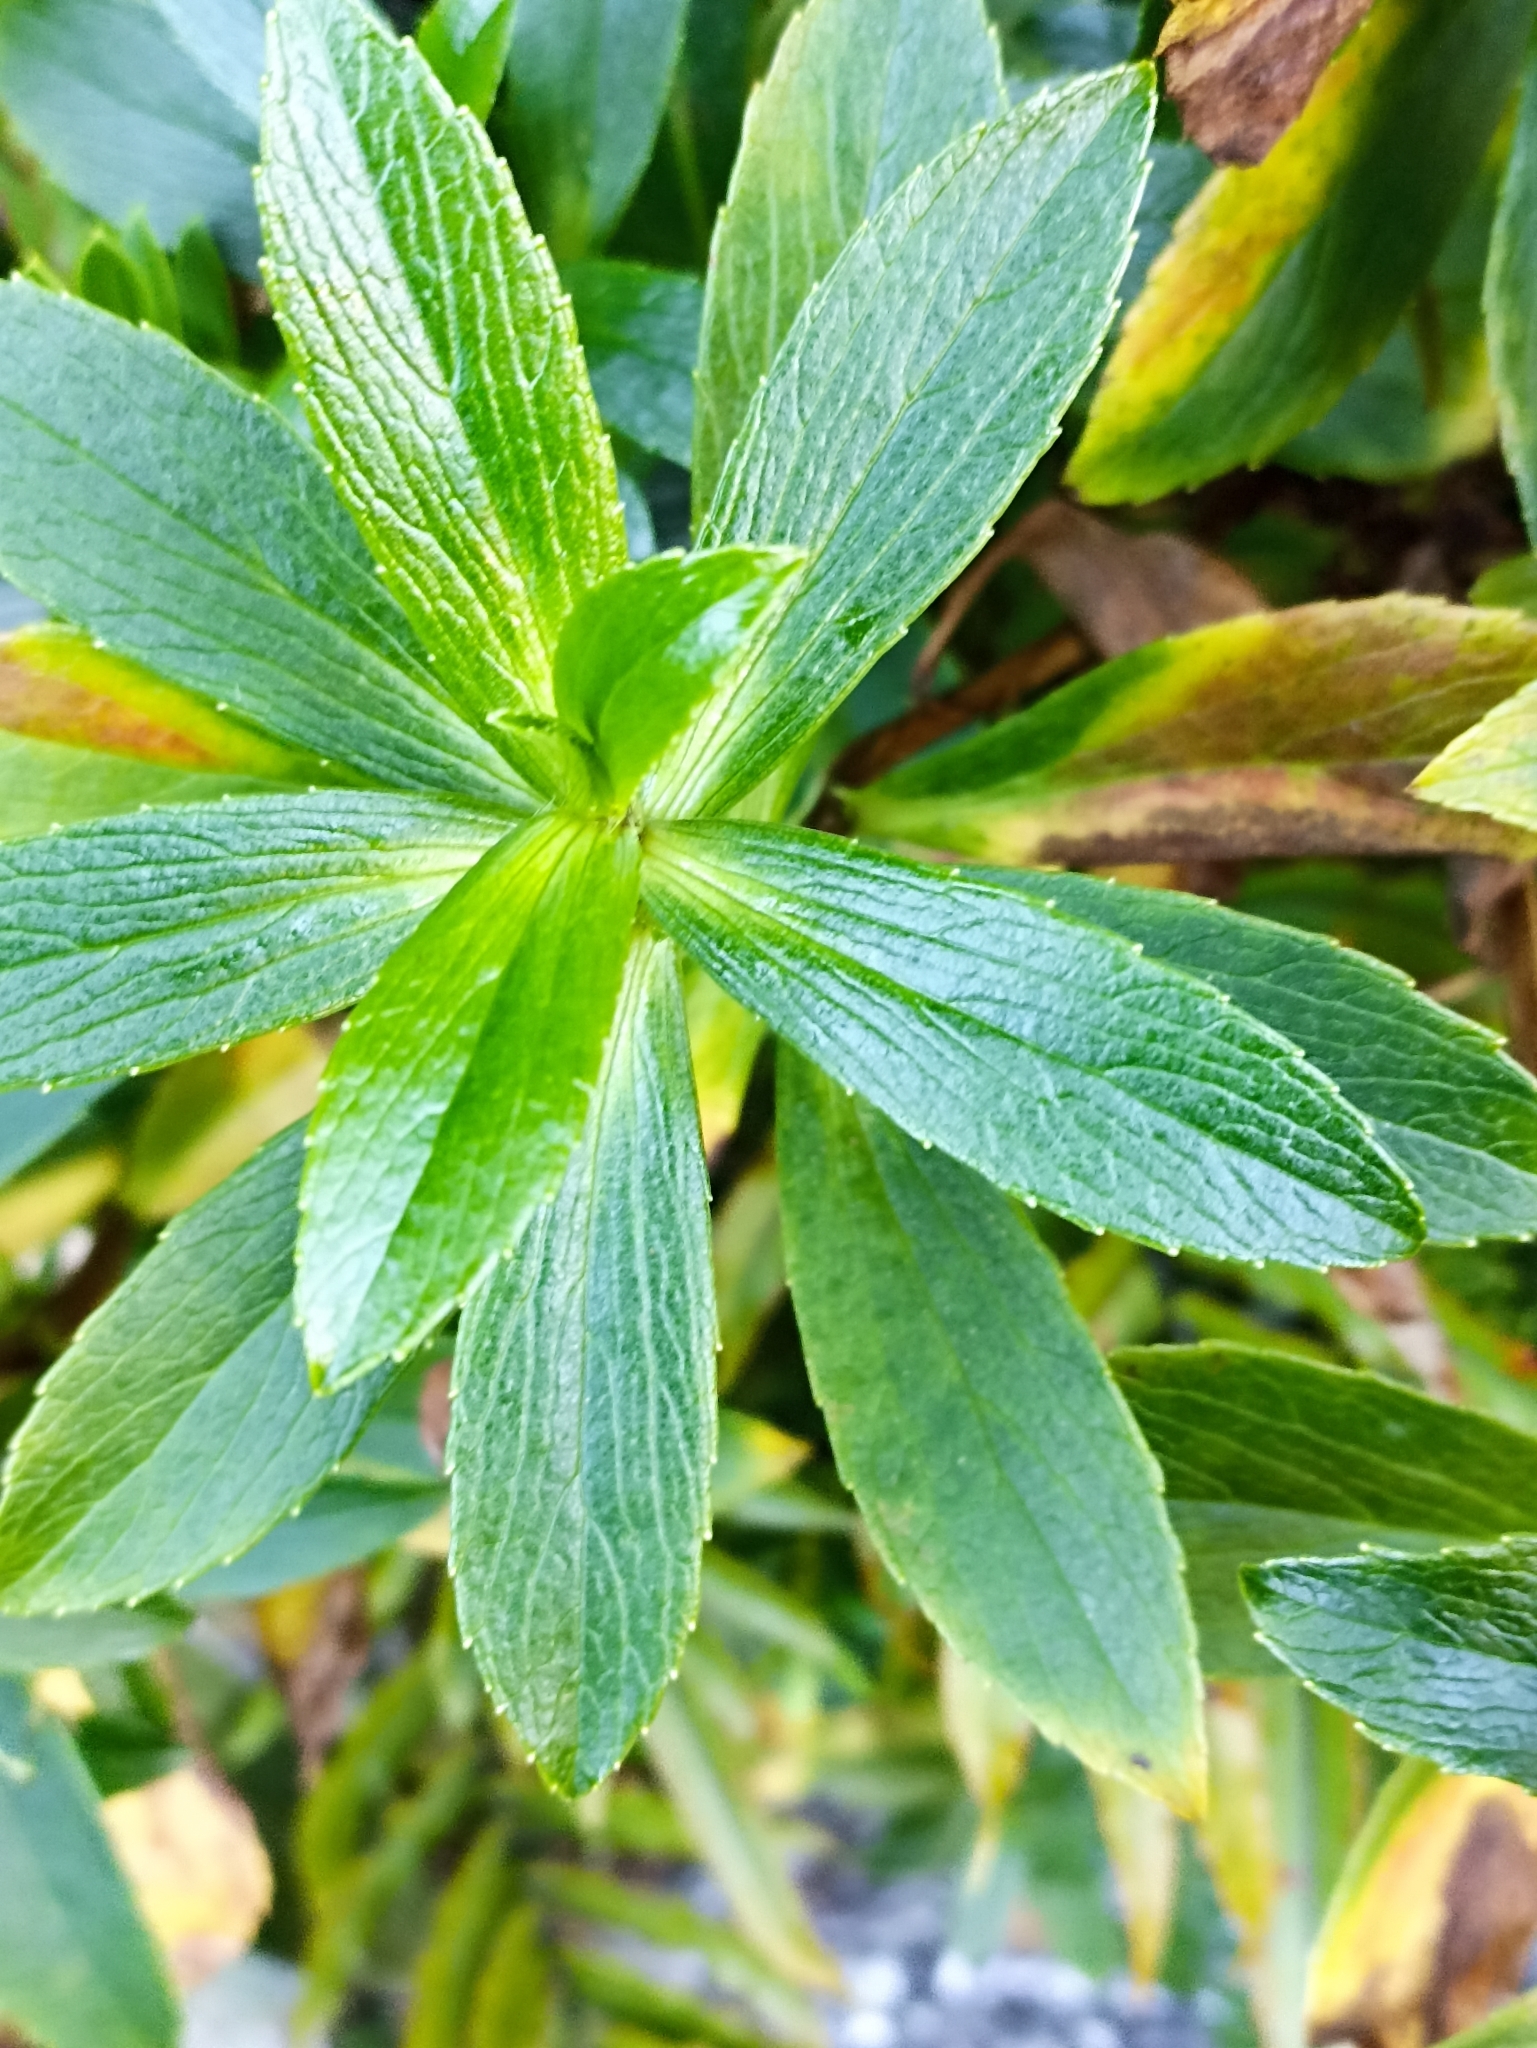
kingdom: Plantae
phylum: Tracheophyta
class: Magnoliopsida
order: Asterales
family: Asteraceae
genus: Traversia
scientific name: Traversia baccharoides
